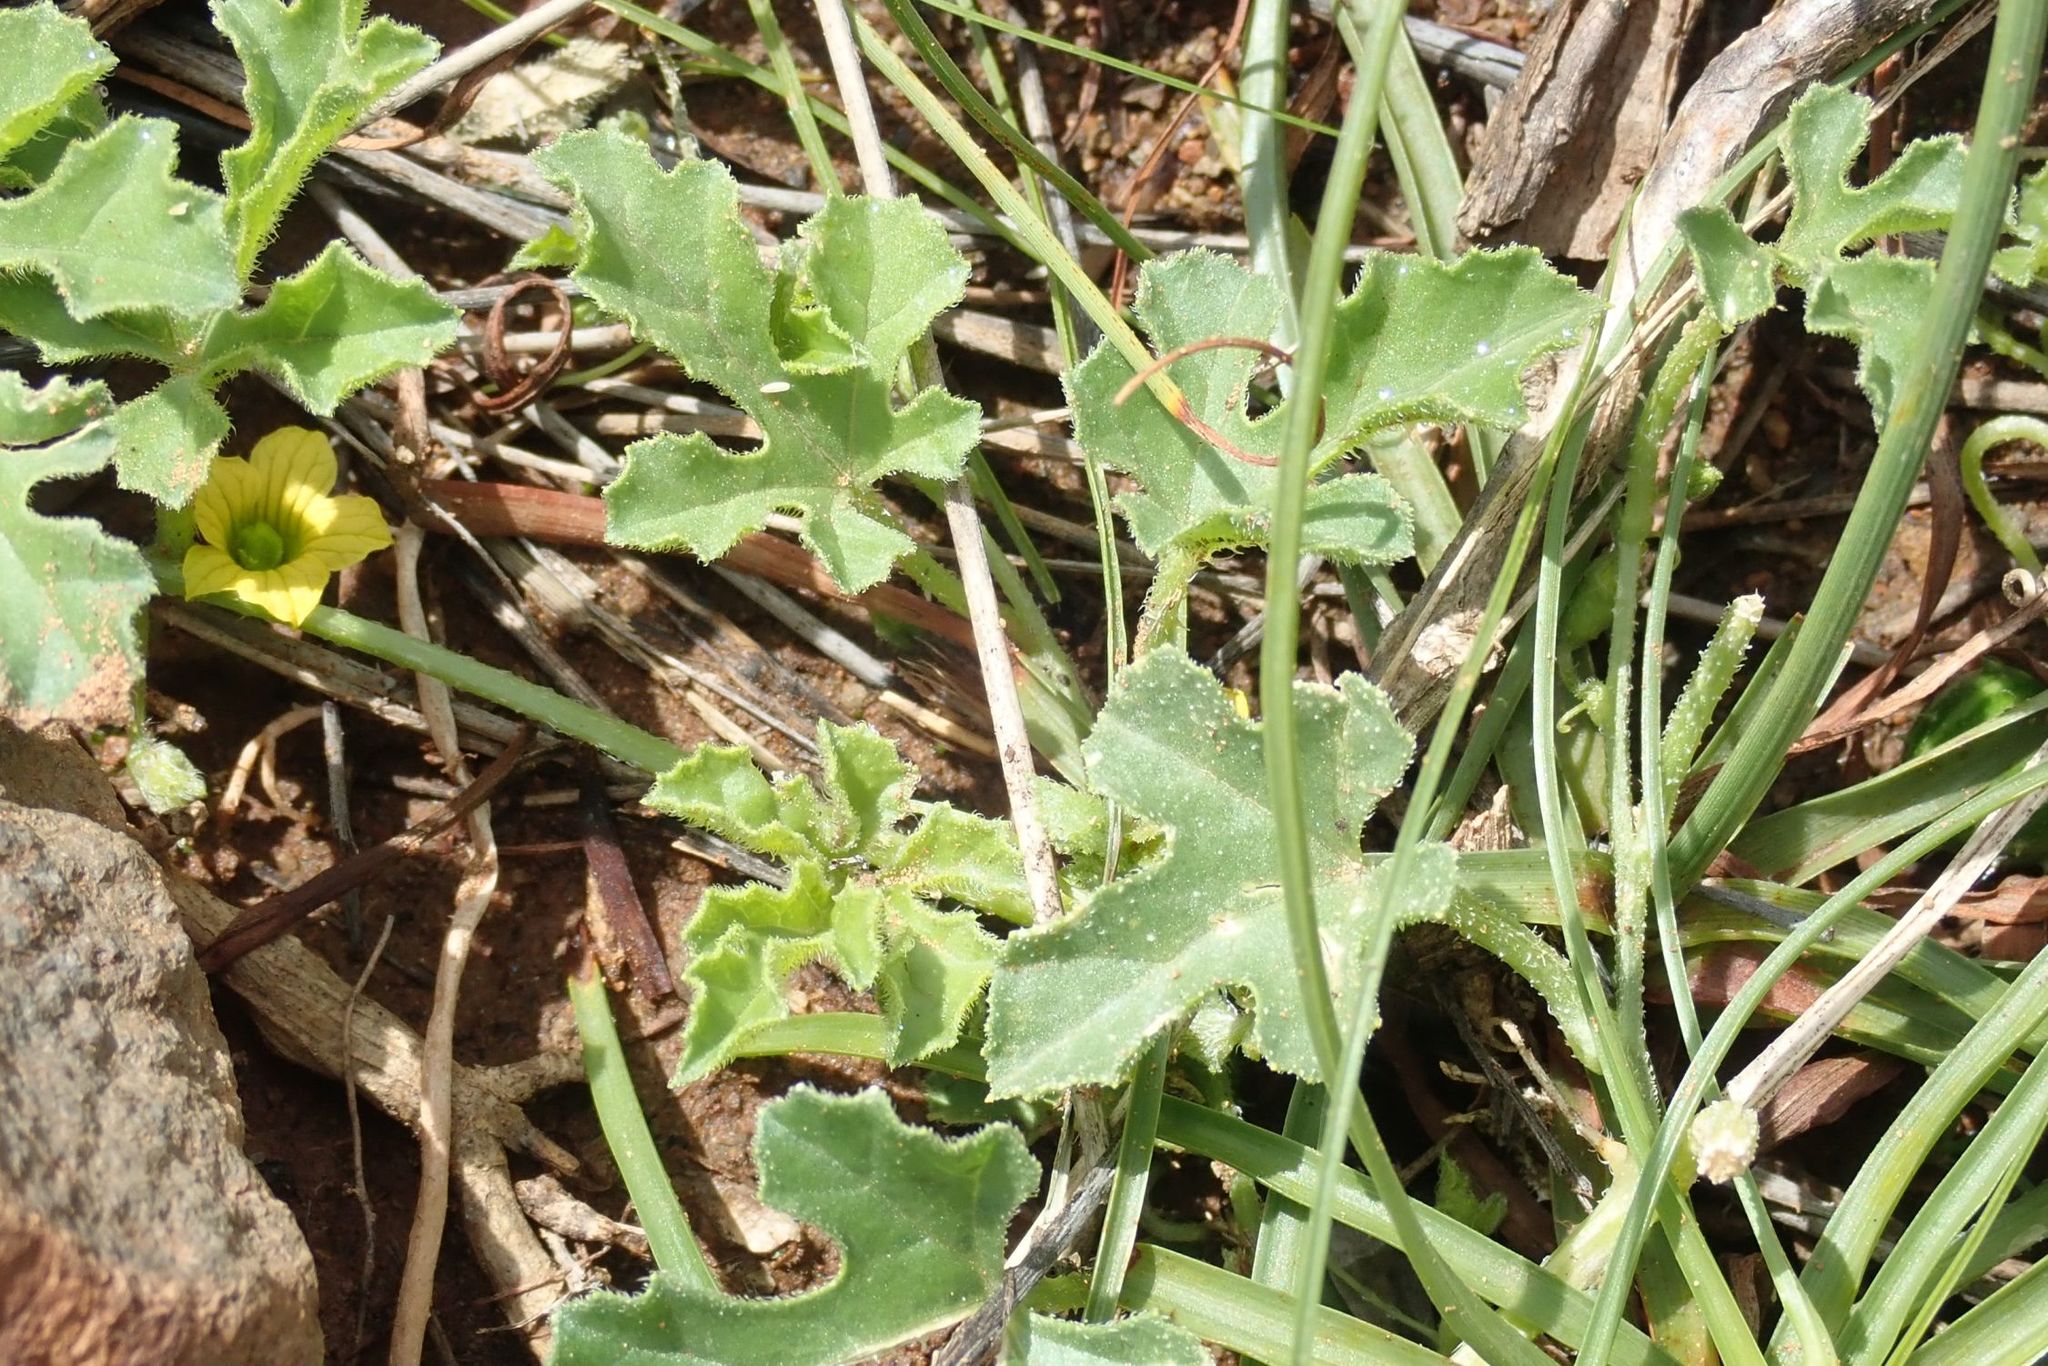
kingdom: Plantae
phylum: Tracheophyta
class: Magnoliopsida
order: Cucurbitales
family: Cucurbitaceae
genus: Cucumis
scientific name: Cucumis myriocarpus
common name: Gooseberry cucumber
